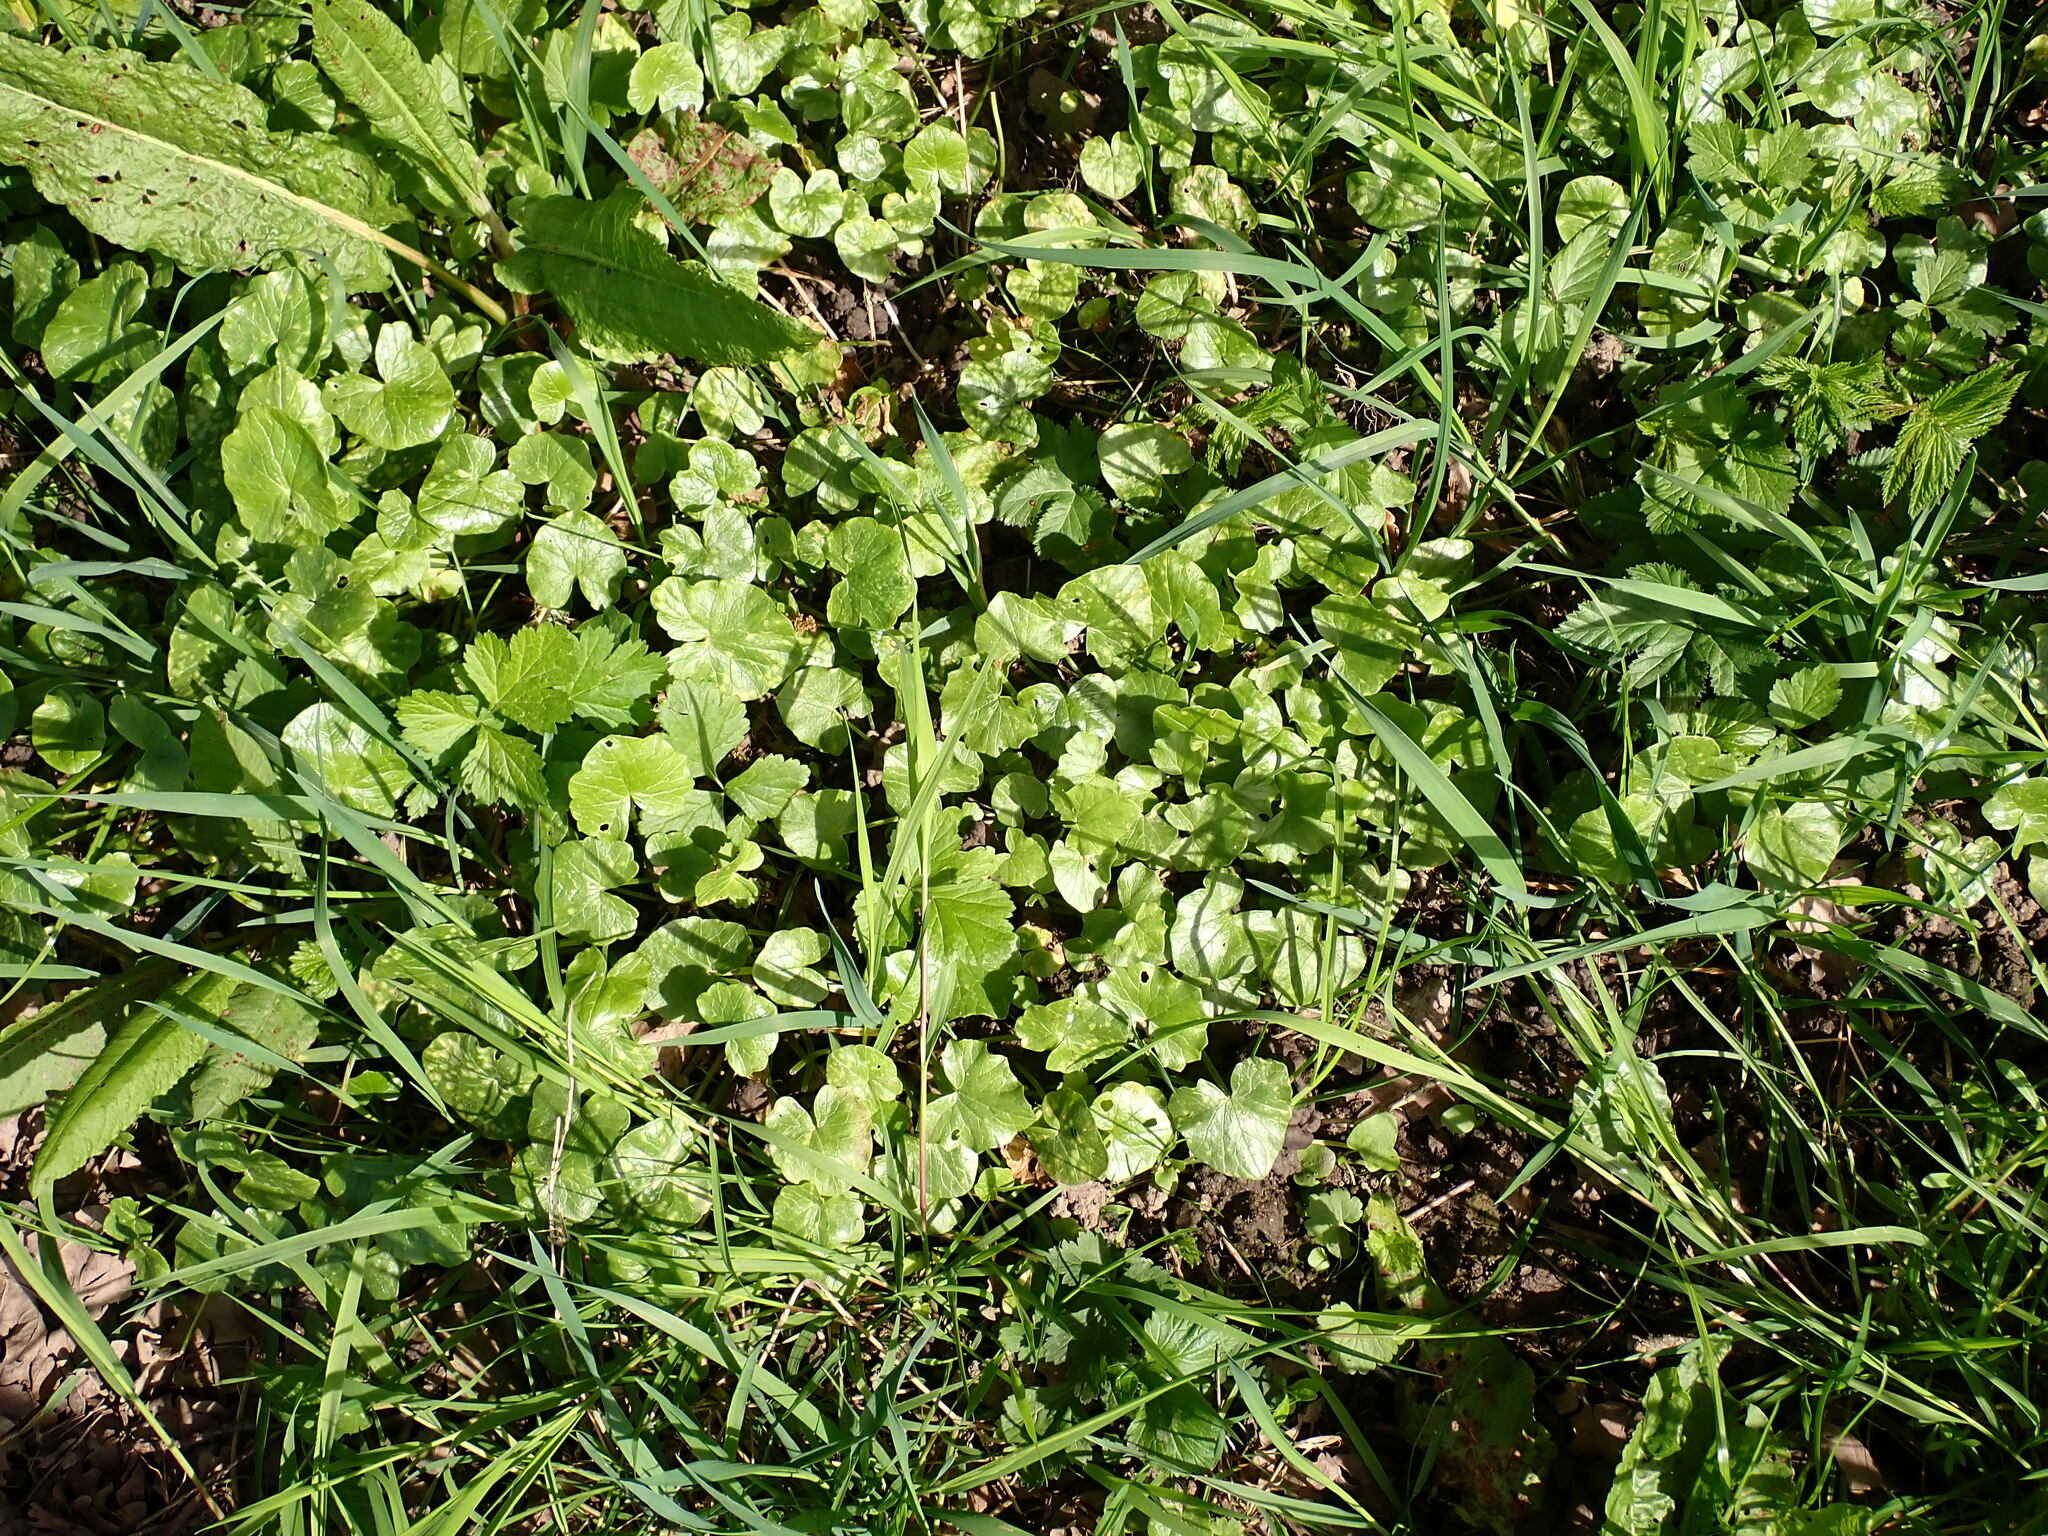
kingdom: Plantae
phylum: Tracheophyta
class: Magnoliopsida
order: Ranunculales
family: Ranunculaceae
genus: Ficaria
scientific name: Ficaria verna
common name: Lesser celandine
